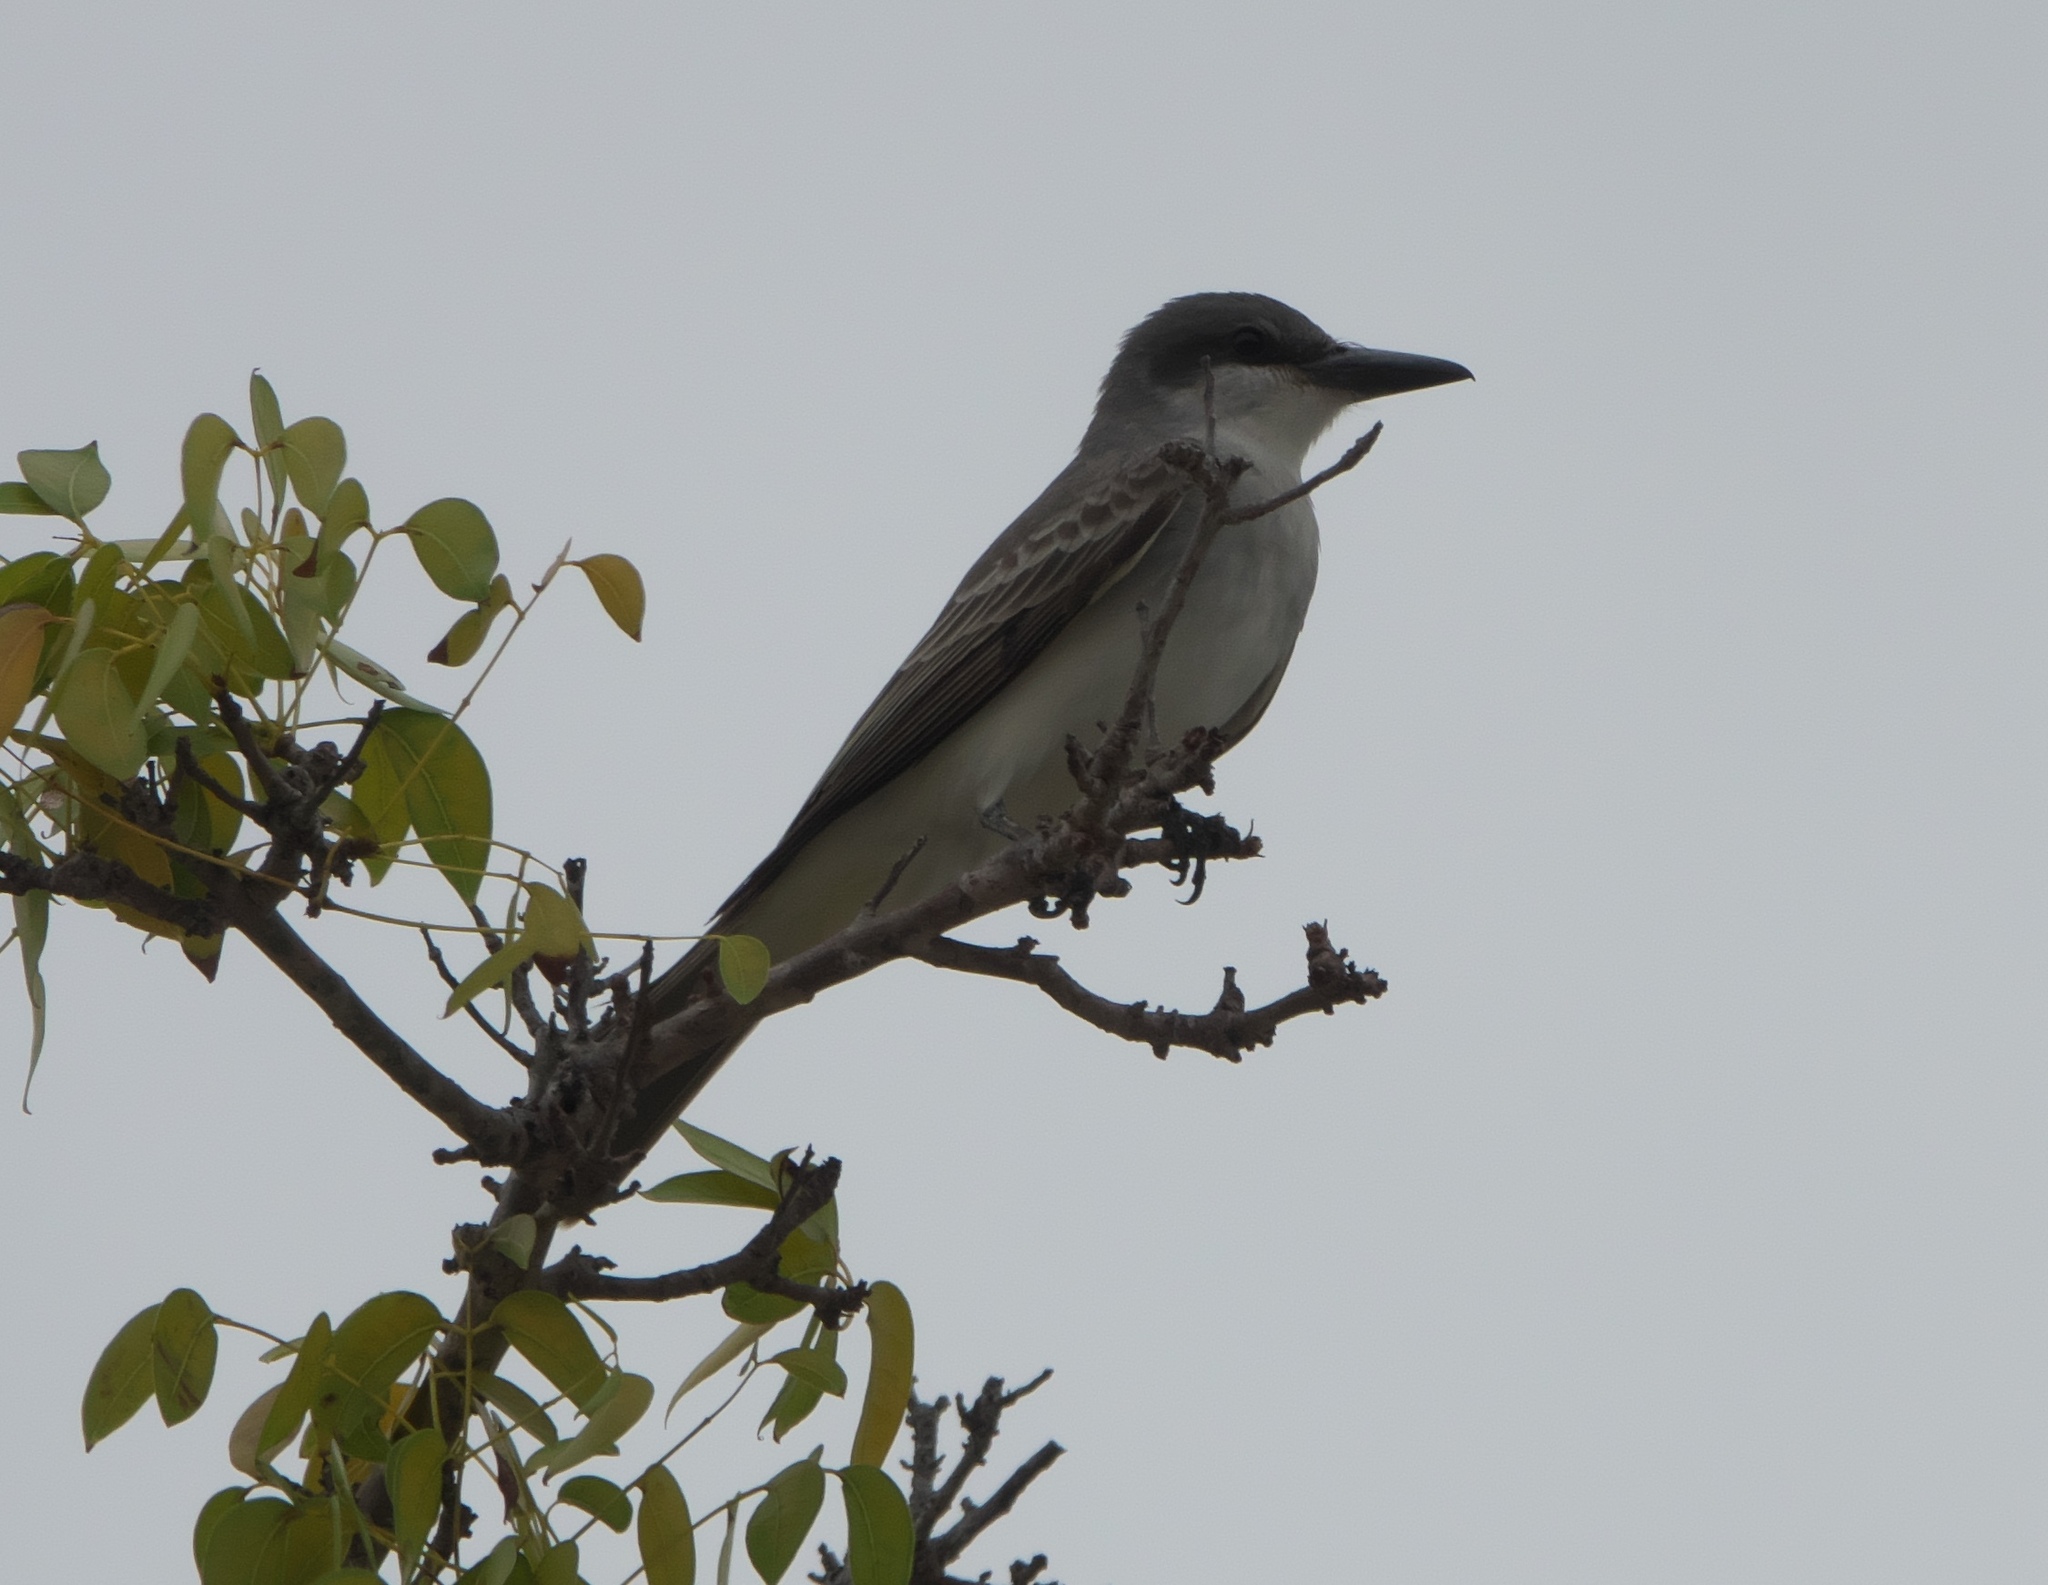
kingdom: Animalia
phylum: Chordata
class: Aves
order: Passeriformes
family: Tyrannidae
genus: Tyrannus
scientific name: Tyrannus dominicensis
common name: Gray kingbird
